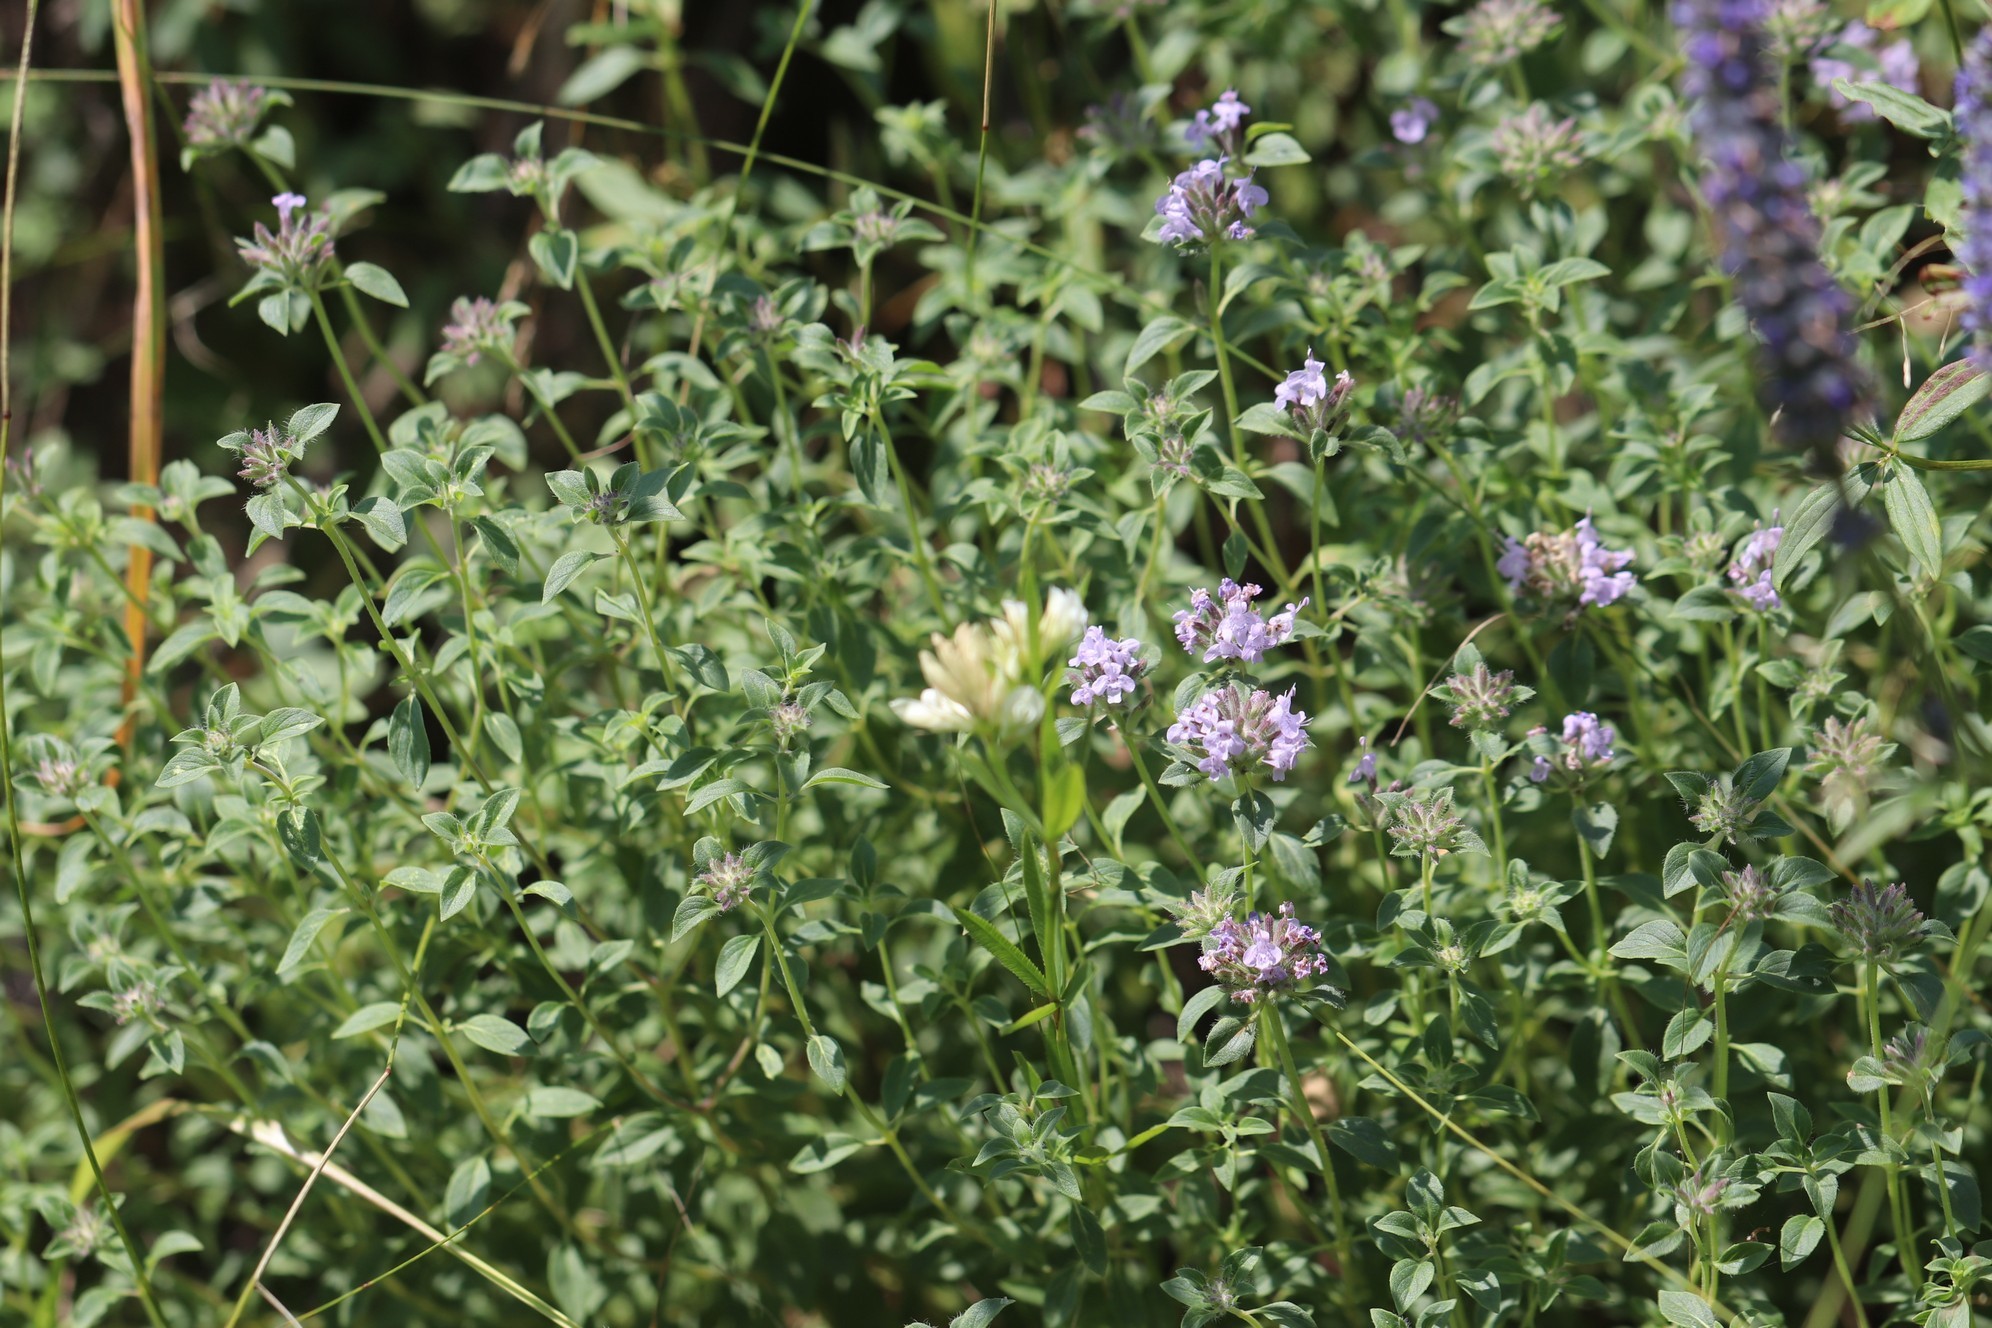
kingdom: Plantae
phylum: Tracheophyta
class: Magnoliopsida
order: Lamiales
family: Lamiaceae
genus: Ziziphora
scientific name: Ziziphora clinopodioides
